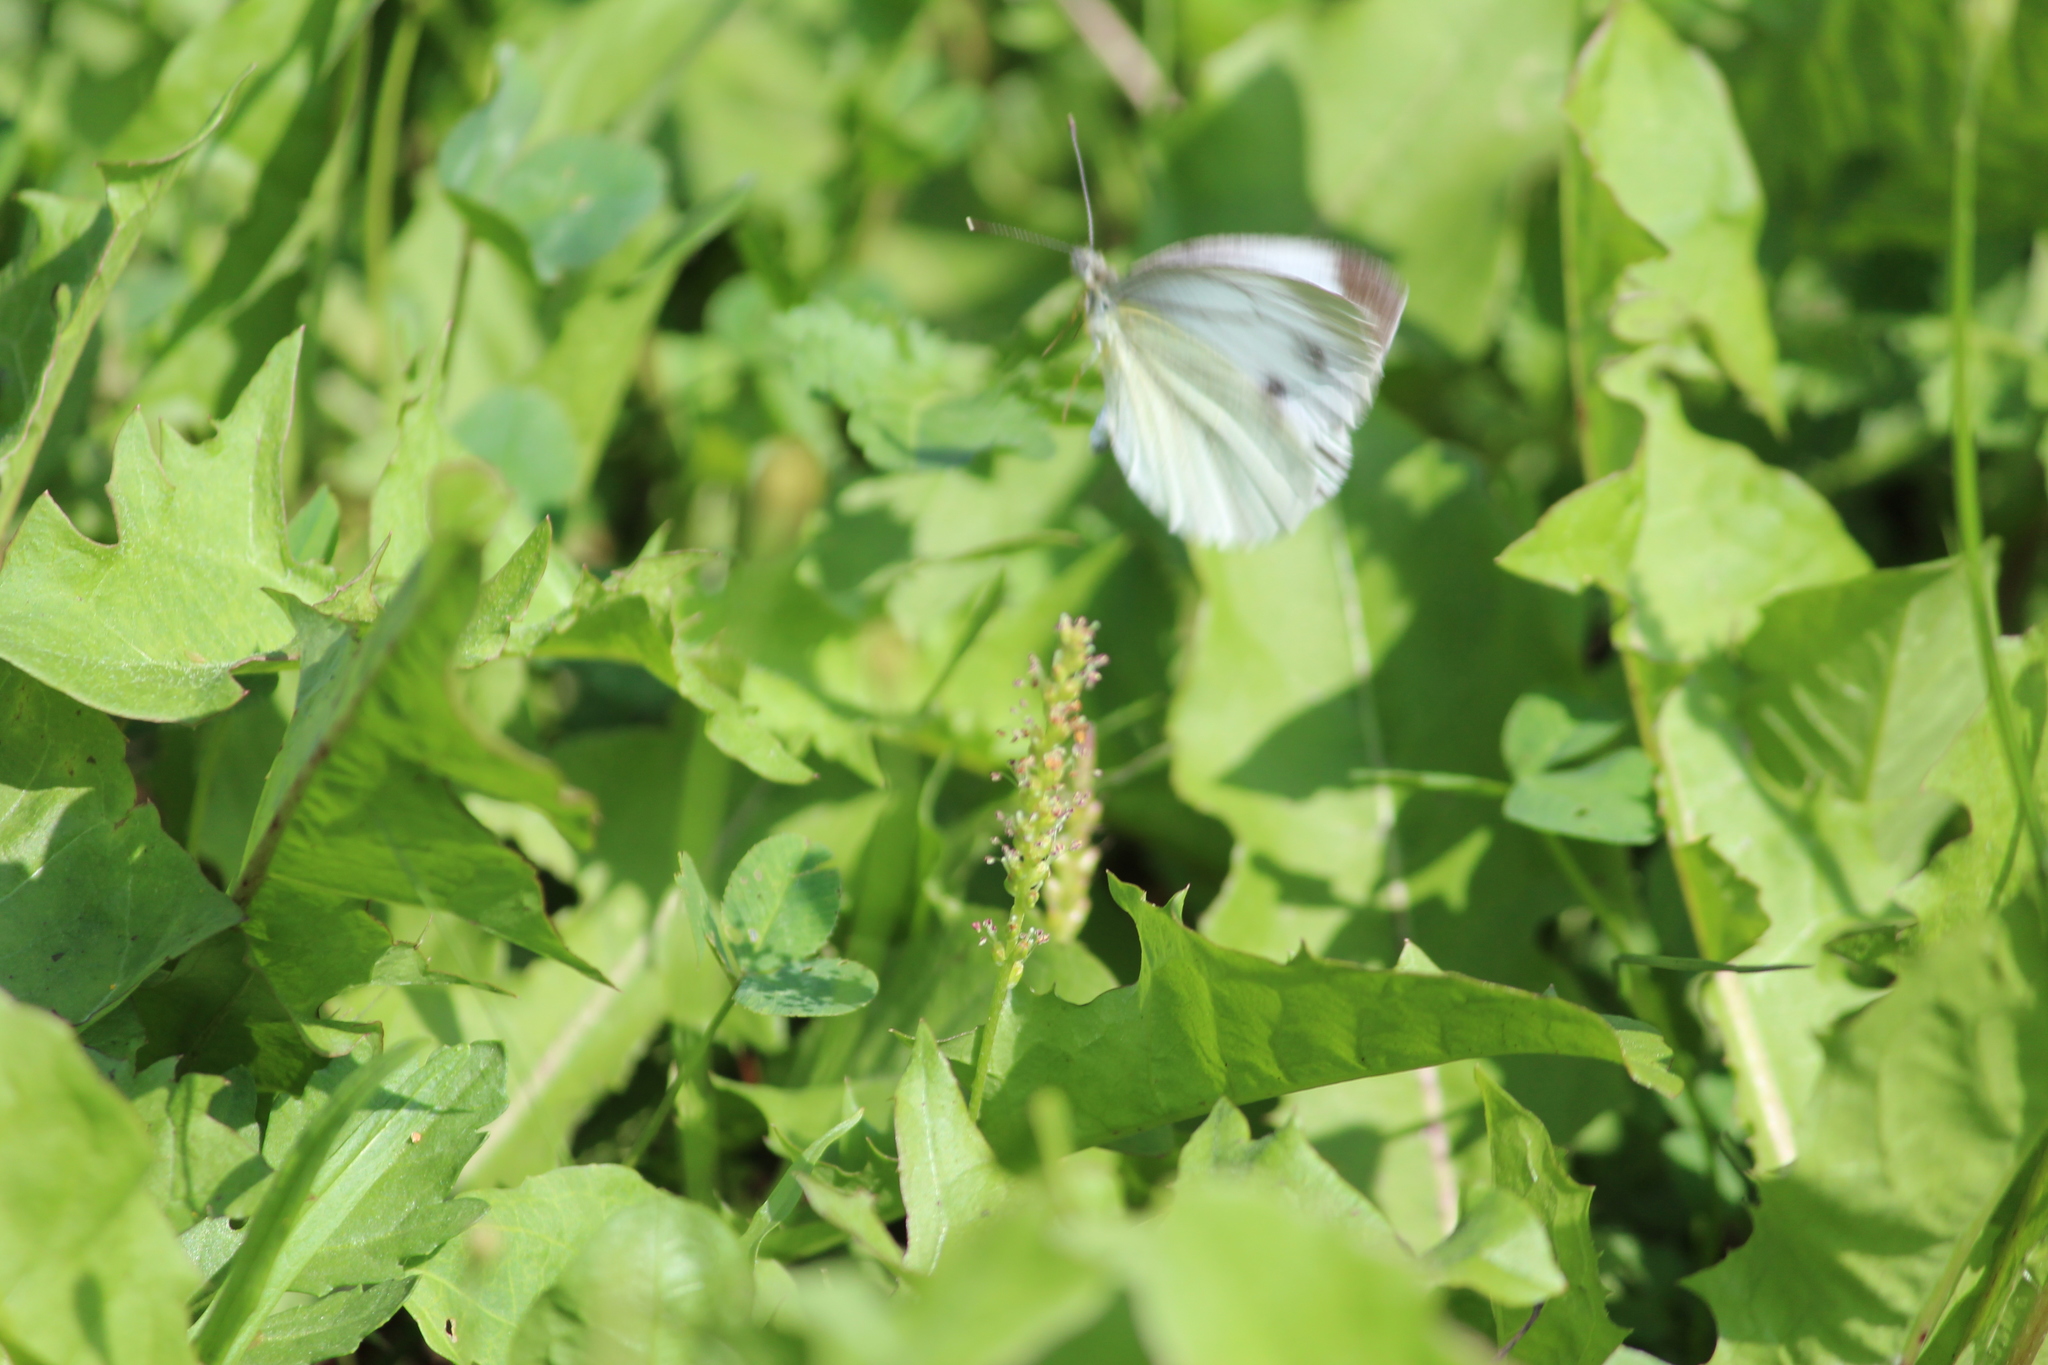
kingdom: Animalia
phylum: Arthropoda
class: Insecta
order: Lepidoptera
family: Pieridae
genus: Pieris
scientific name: Pieris napi
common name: Green-veined white
